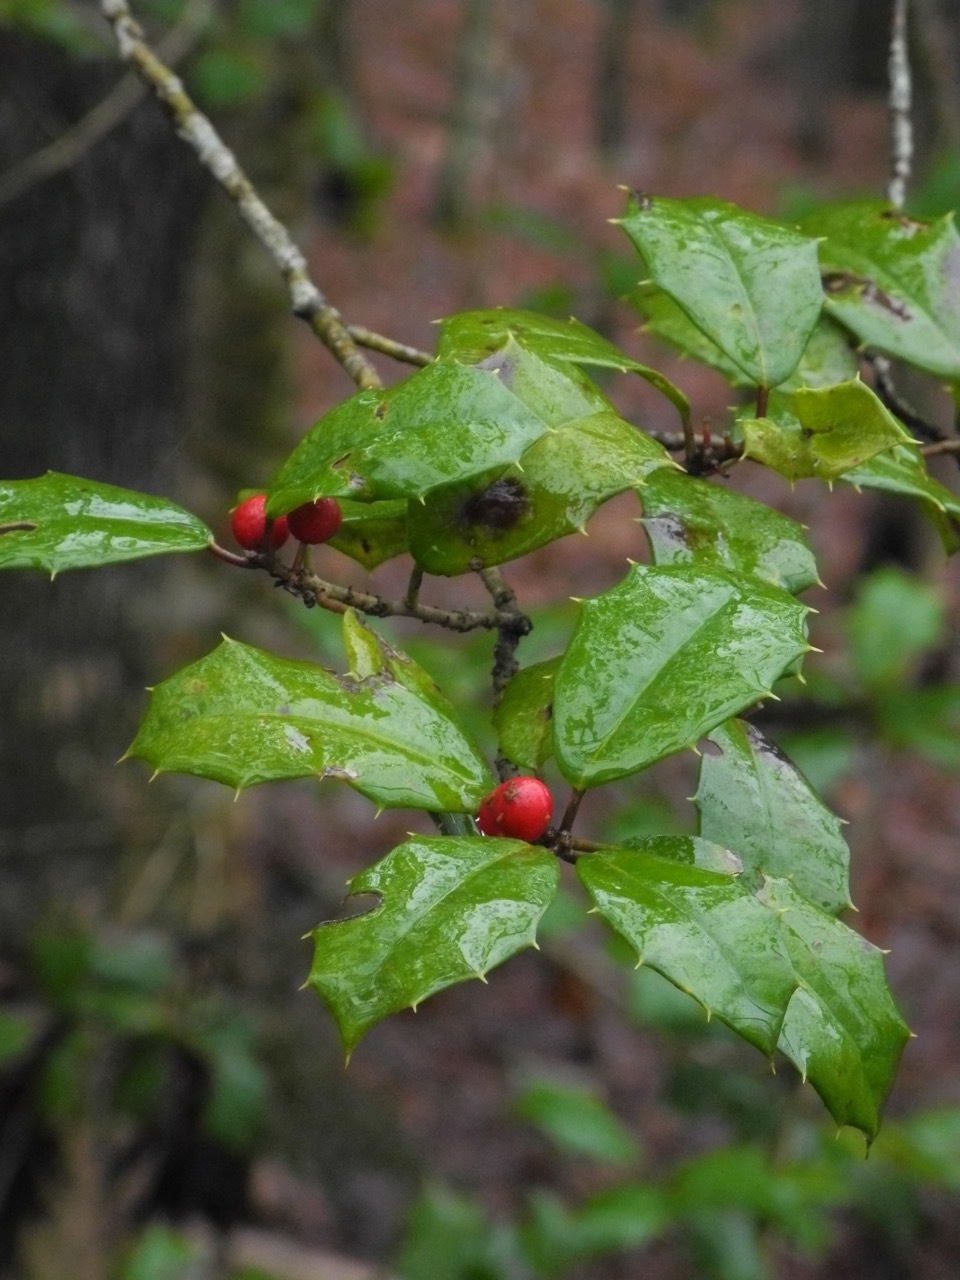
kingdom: Plantae
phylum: Tracheophyta
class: Magnoliopsida
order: Aquifoliales
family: Aquifoliaceae
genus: Ilex
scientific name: Ilex opaca
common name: American holly
